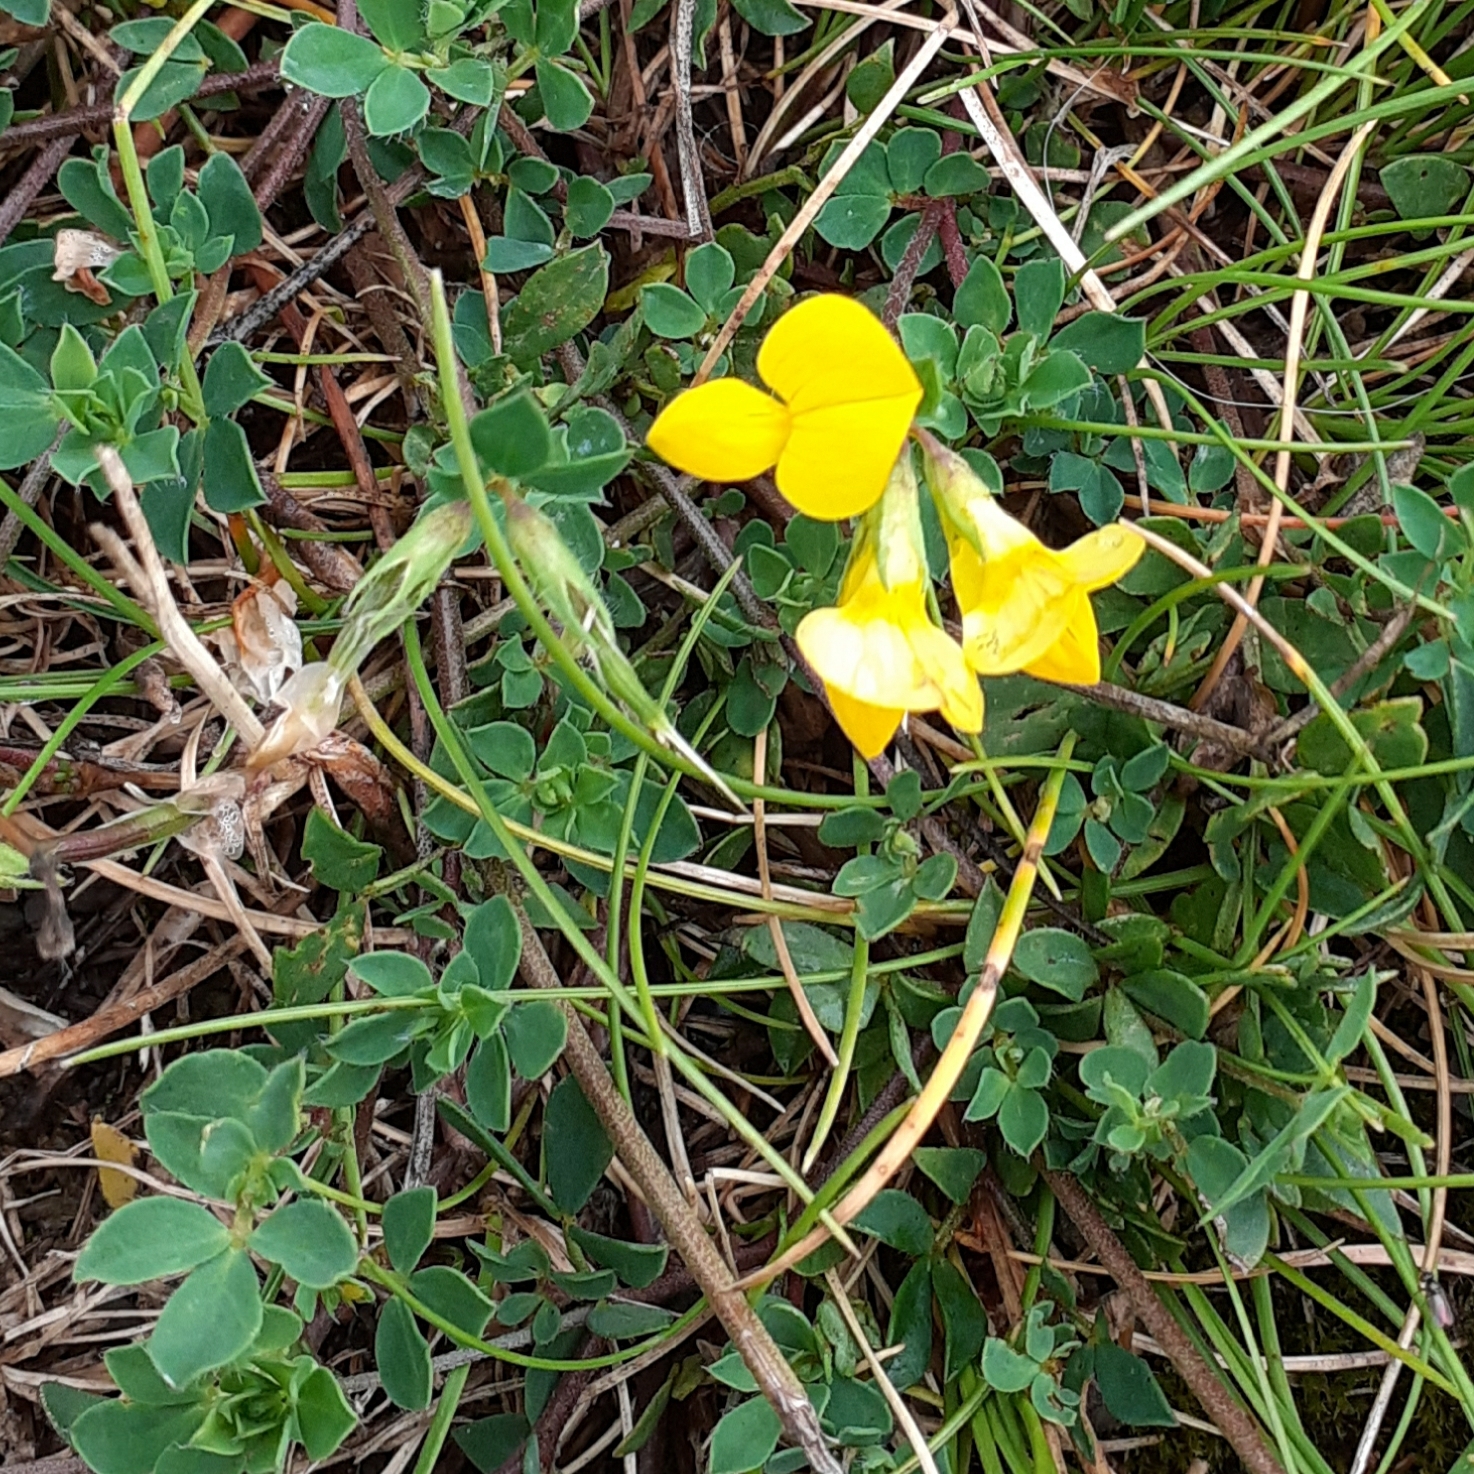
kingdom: Plantae
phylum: Tracheophyta
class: Magnoliopsida
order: Fabales
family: Fabaceae
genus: Lotus
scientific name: Lotus corniculatus
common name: Common bird's-foot-trefoil
